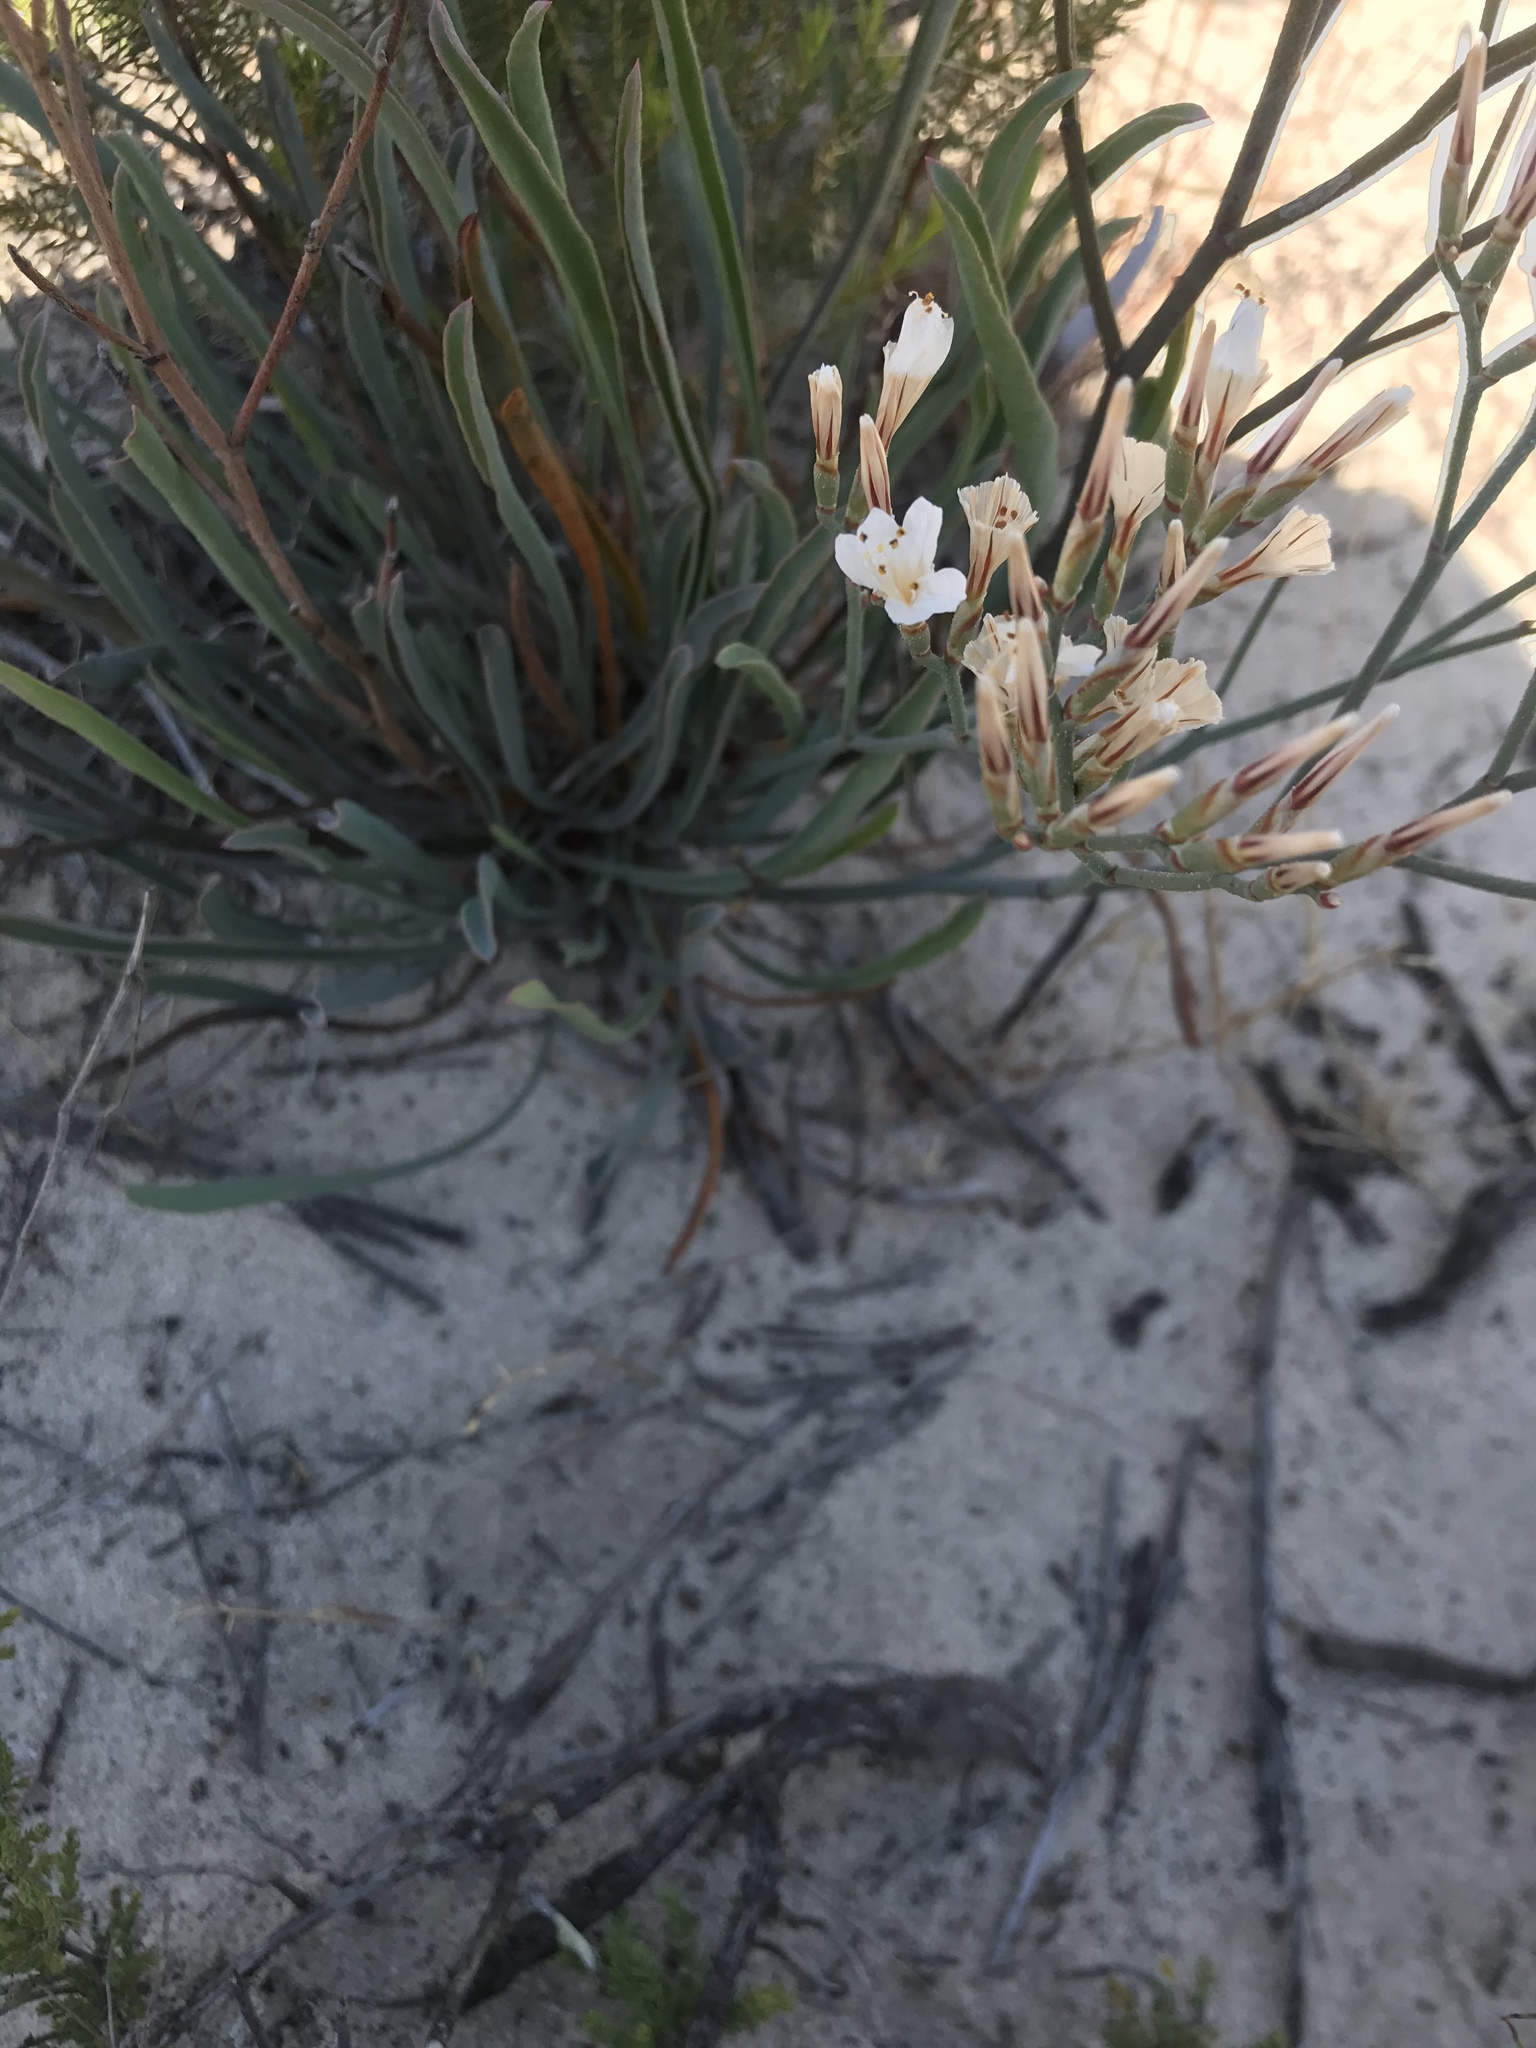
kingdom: Plantae
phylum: Tracheophyta
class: Magnoliopsida
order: Caryophyllales
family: Plumbaginaceae
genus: Limonium
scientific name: Limonium longifolium
